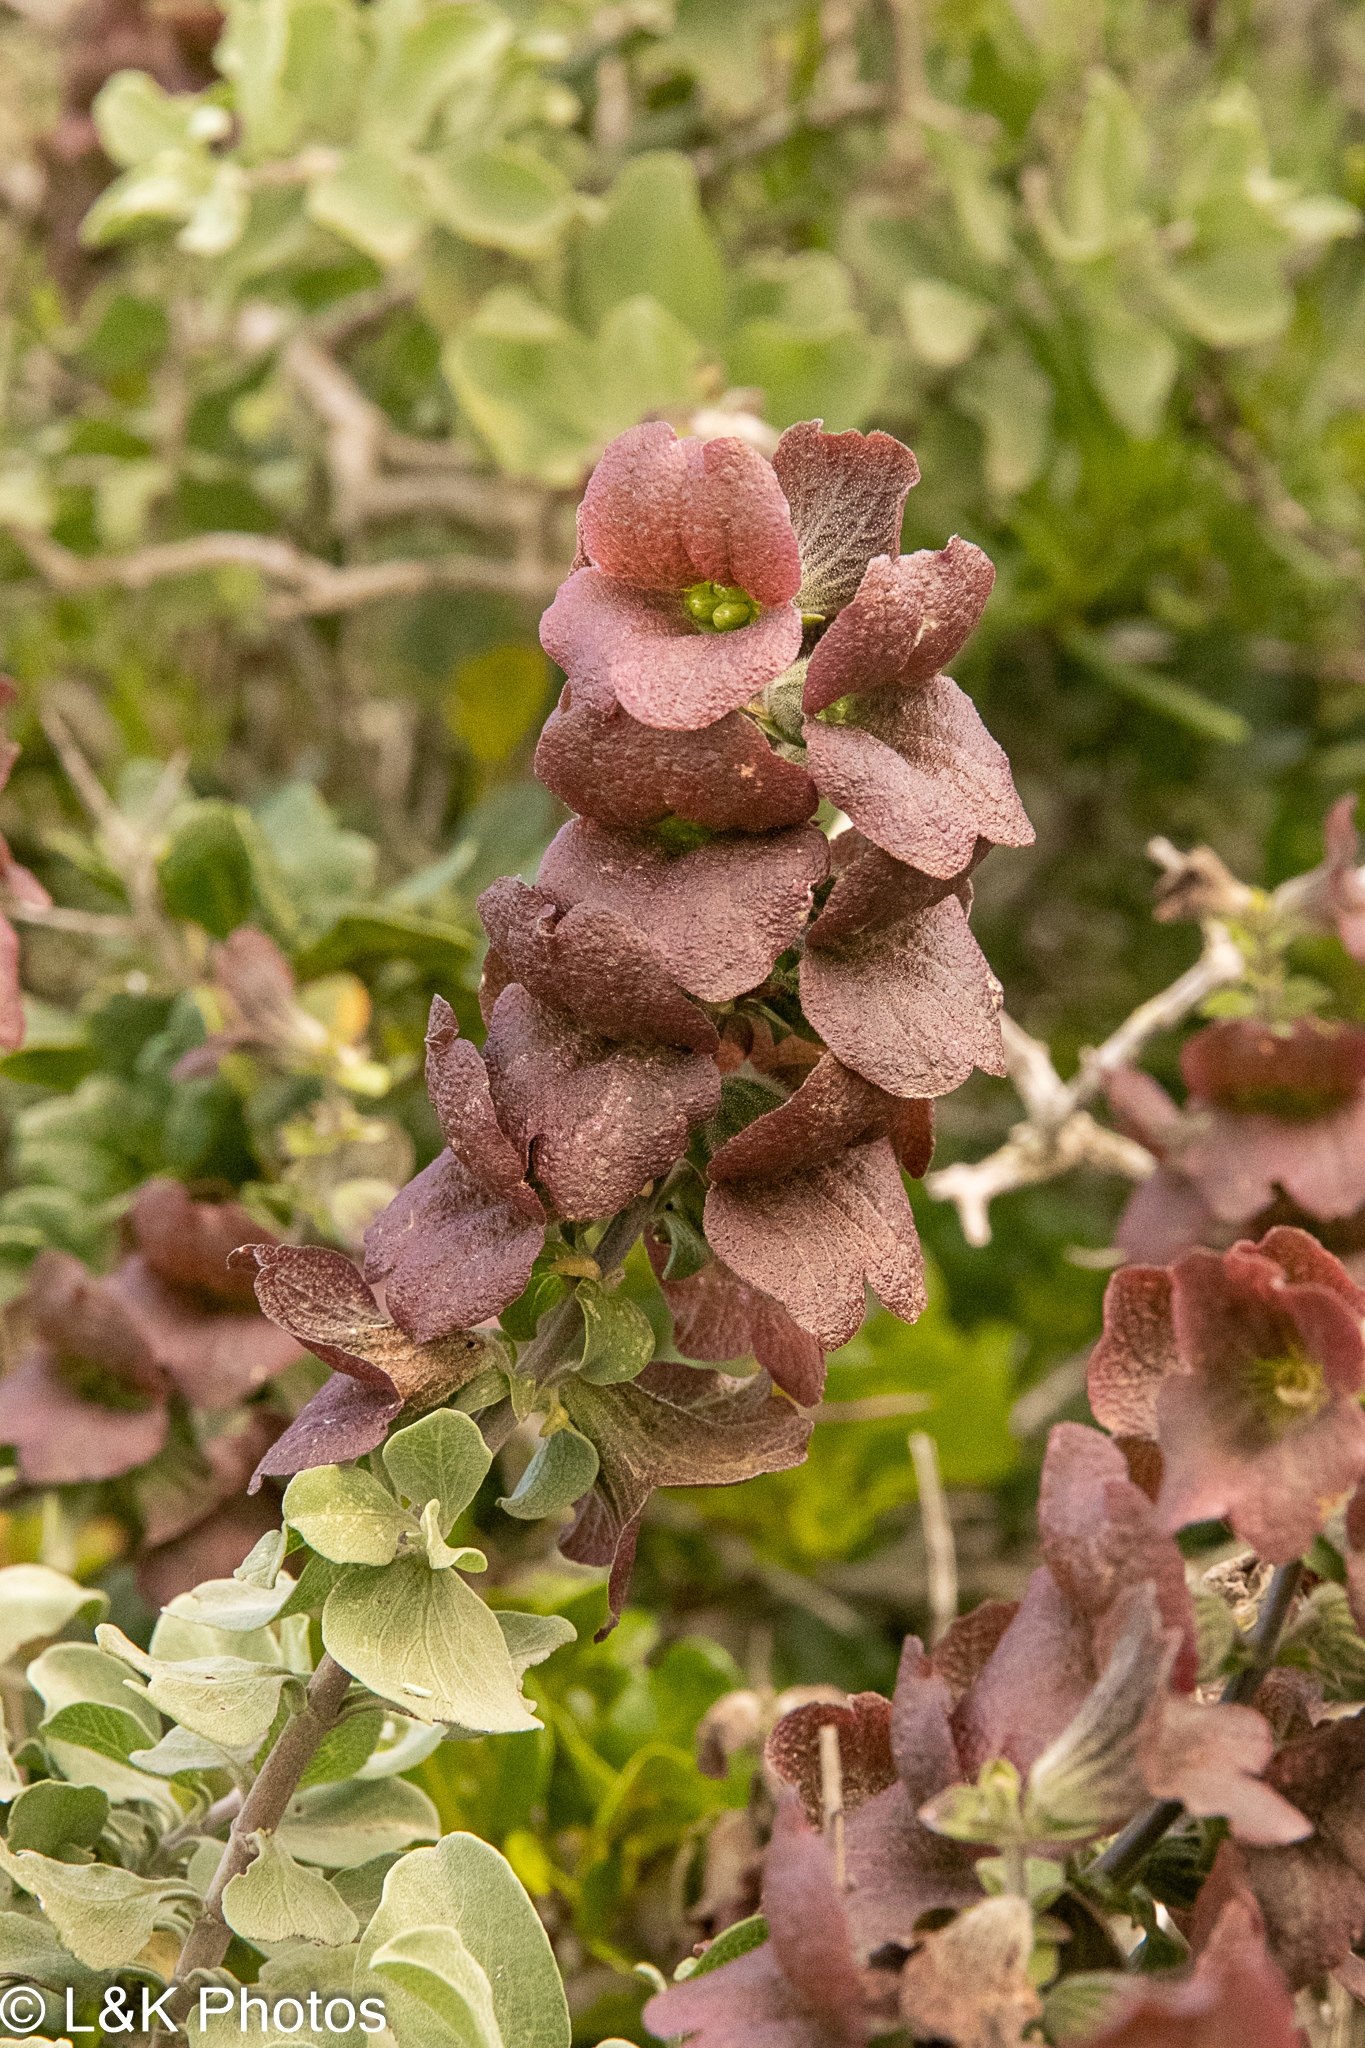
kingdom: Plantae
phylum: Tracheophyta
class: Magnoliopsida
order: Lamiales
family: Lamiaceae
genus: Salvia
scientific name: Salvia aurea
